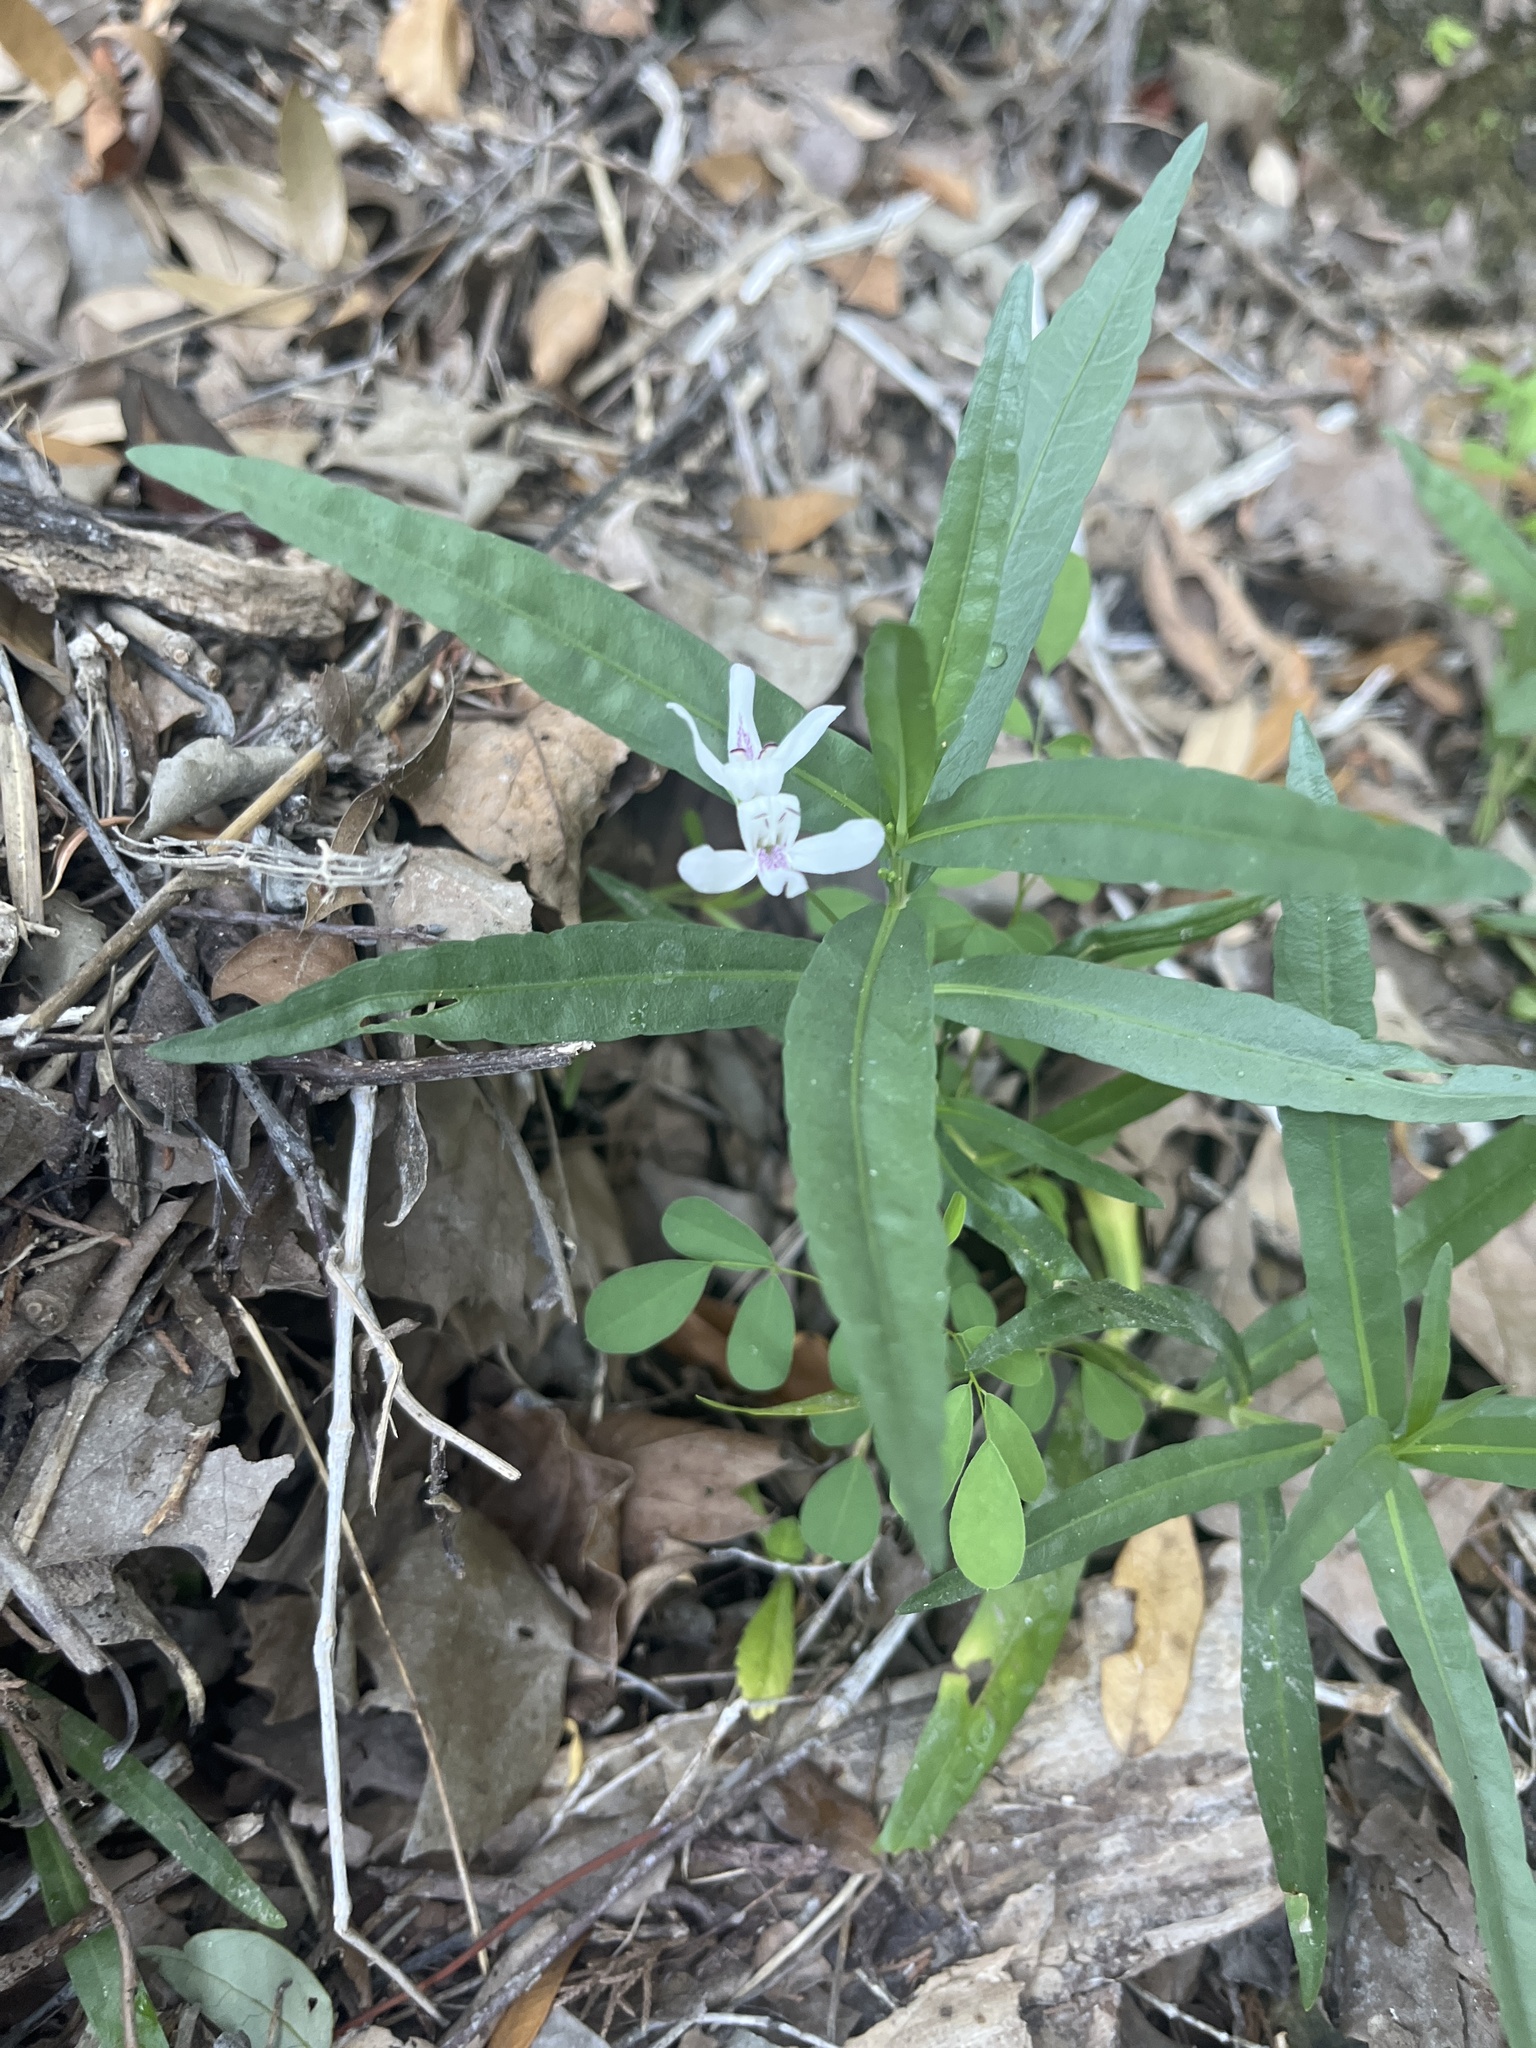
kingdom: Plantae
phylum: Tracheophyta
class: Magnoliopsida
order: Lamiales
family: Acanthaceae
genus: Dianthera
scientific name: Dianthera americana
